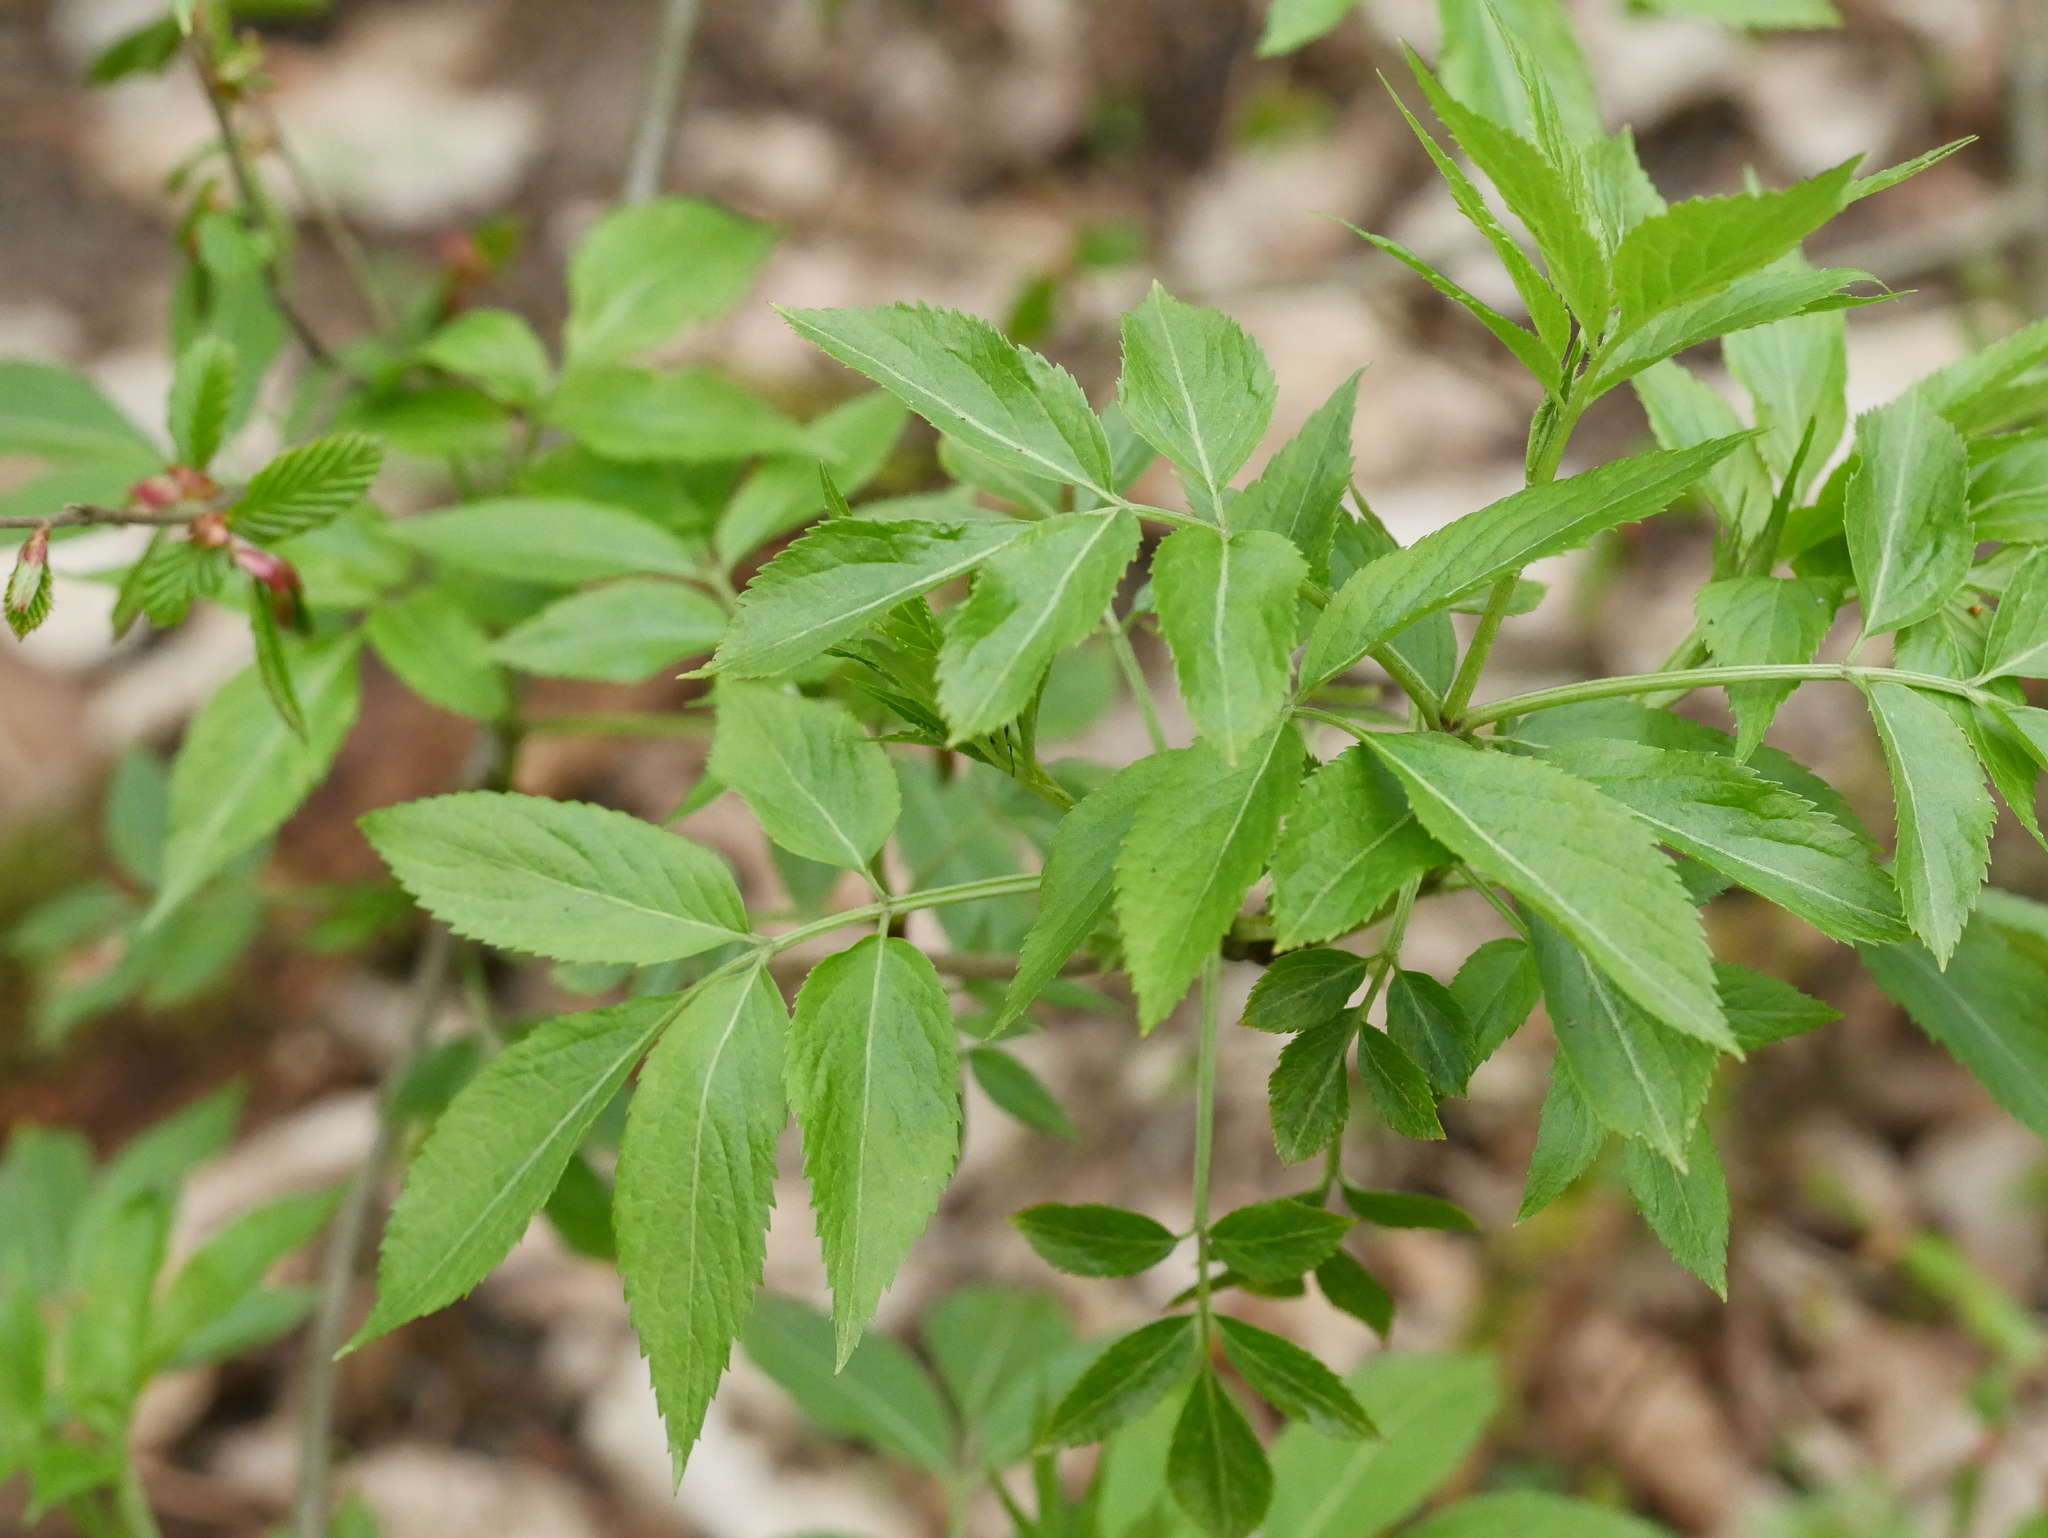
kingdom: Plantae
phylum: Tracheophyta
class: Magnoliopsida
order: Dipsacales
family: Viburnaceae
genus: Sambucus
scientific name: Sambucus nigra
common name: Elder
